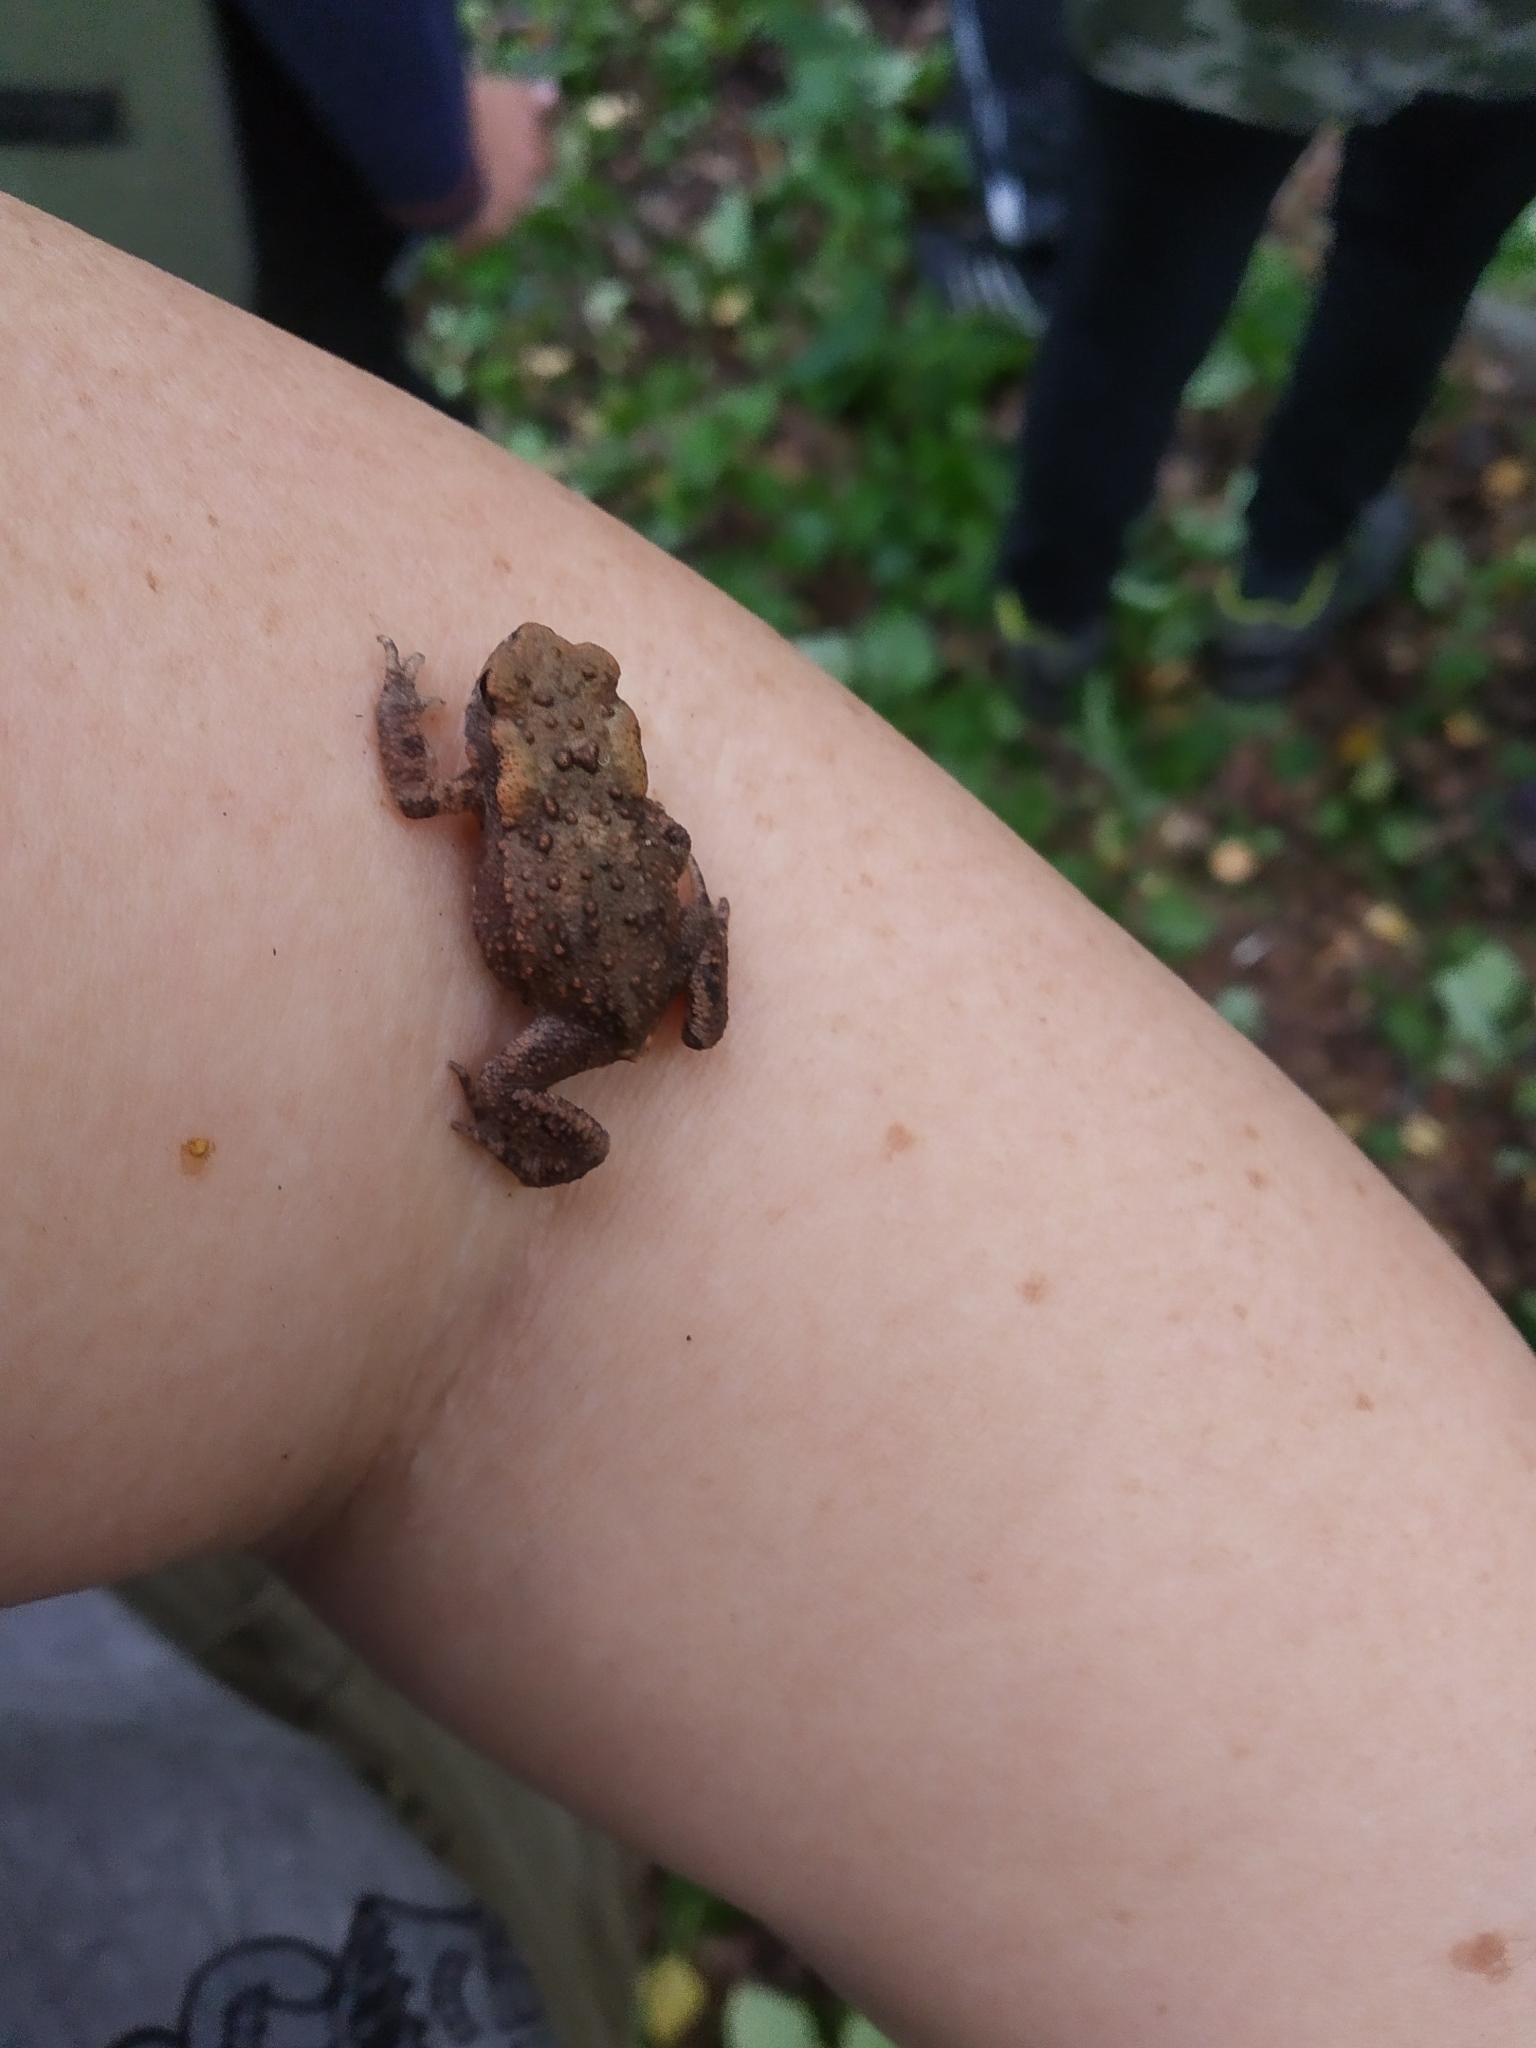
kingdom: Animalia
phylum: Chordata
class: Amphibia
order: Anura
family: Bufonidae
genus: Bufo
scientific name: Bufo bufo
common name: Common toad
